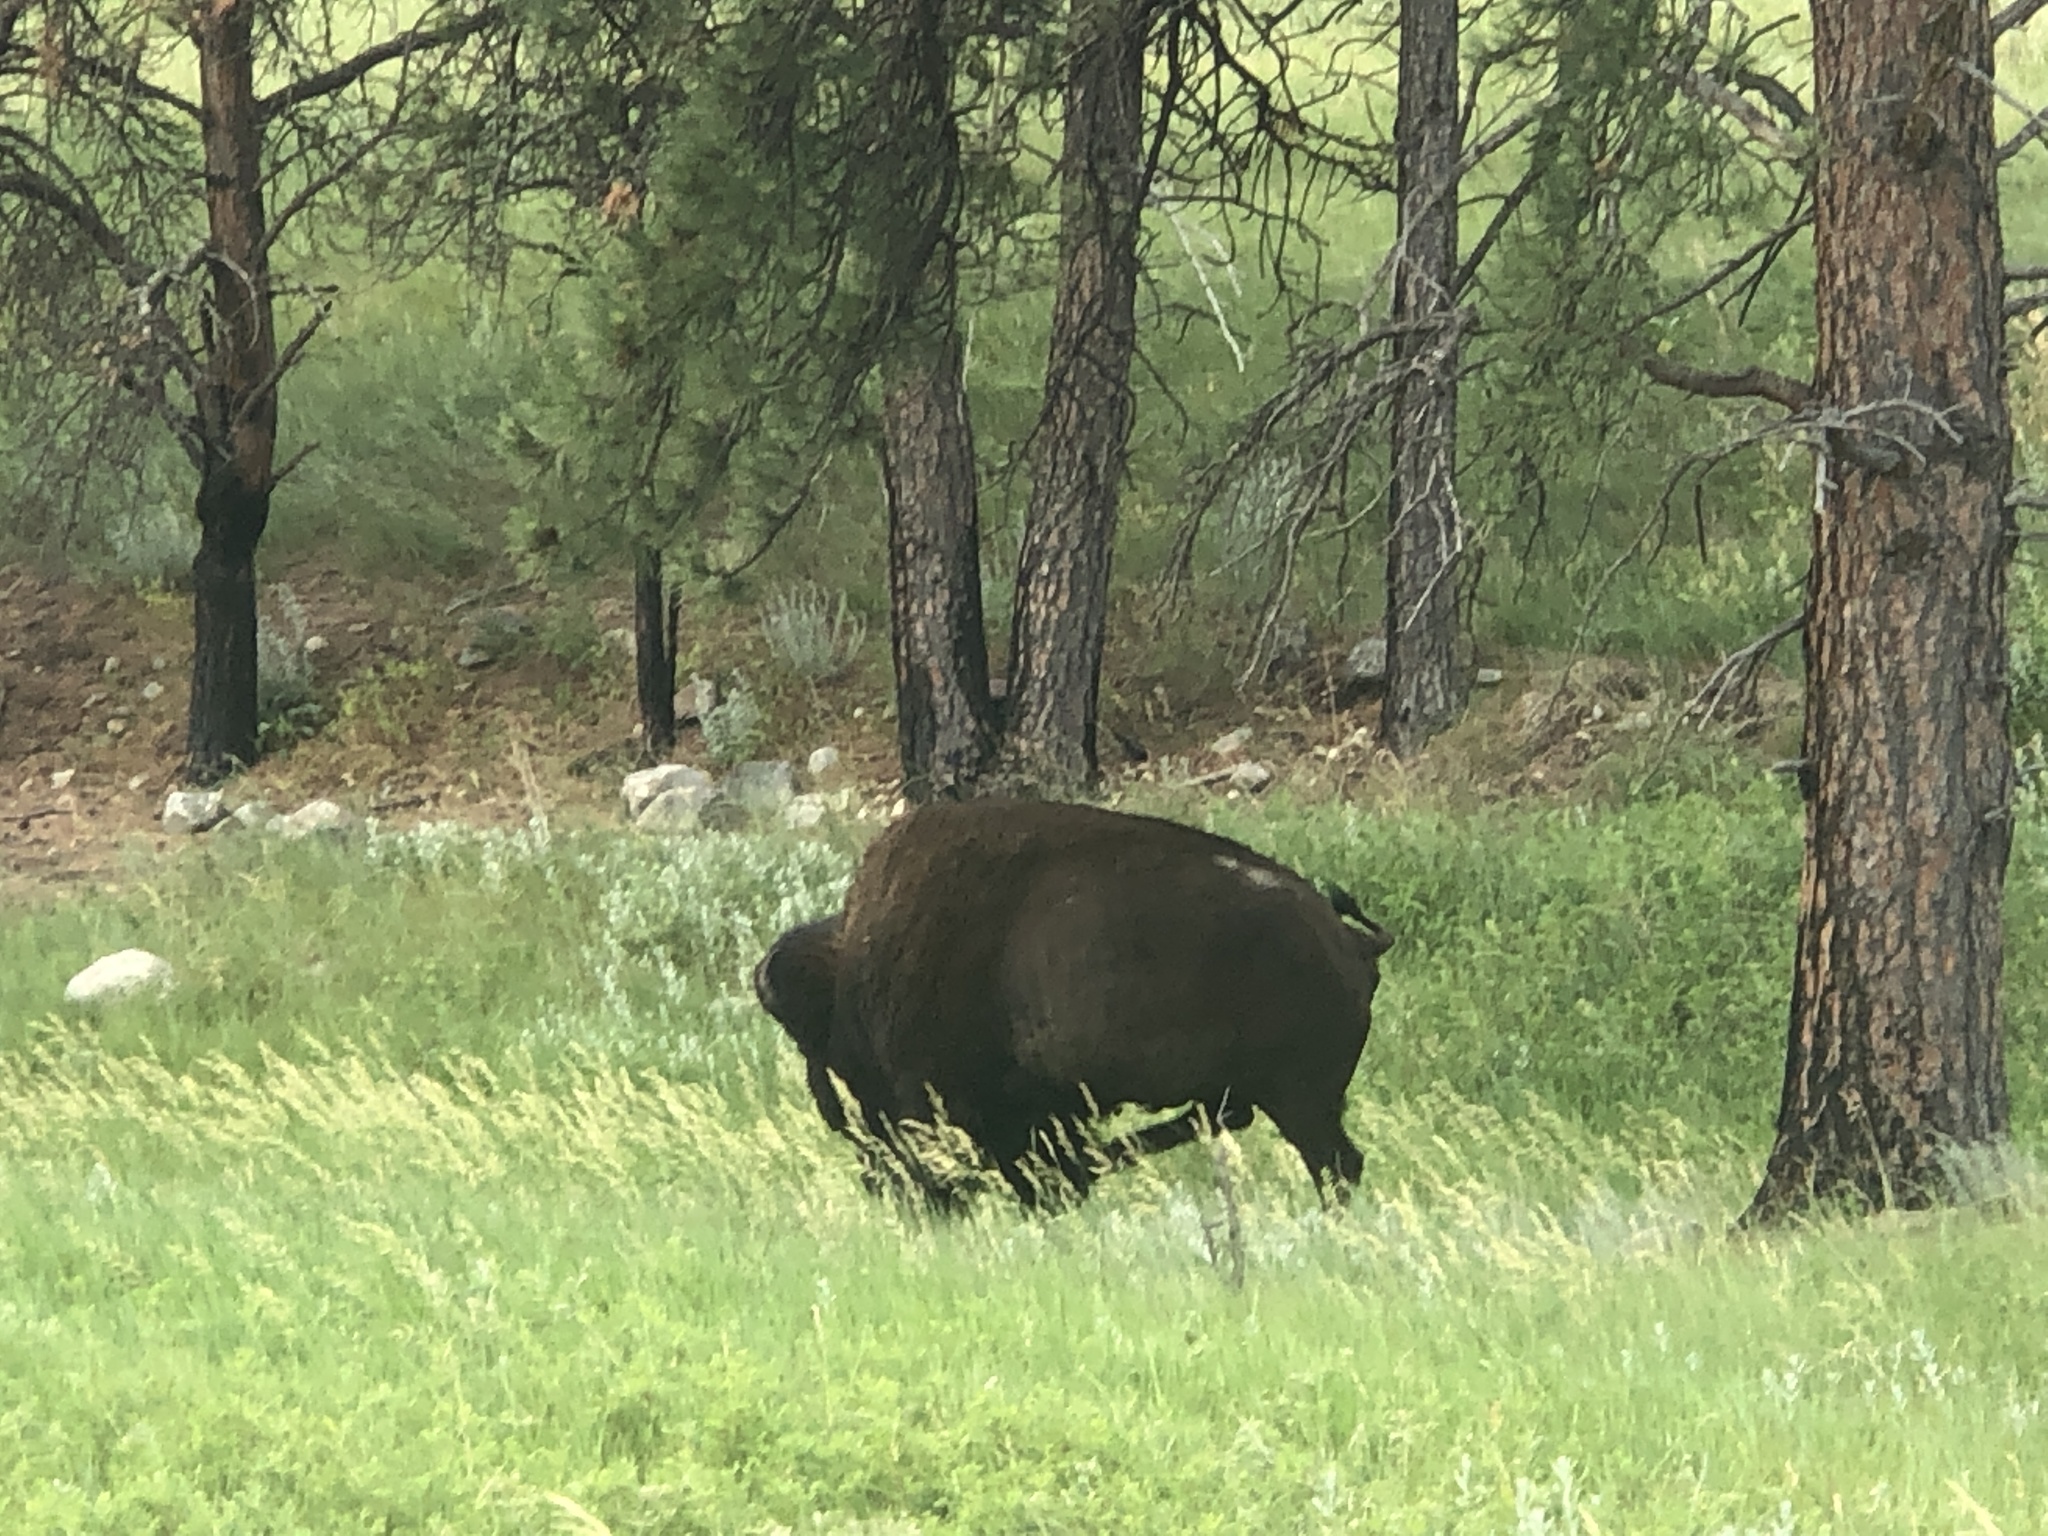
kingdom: Animalia
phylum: Chordata
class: Mammalia
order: Artiodactyla
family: Bovidae
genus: Bison
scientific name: Bison bison
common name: American bison
